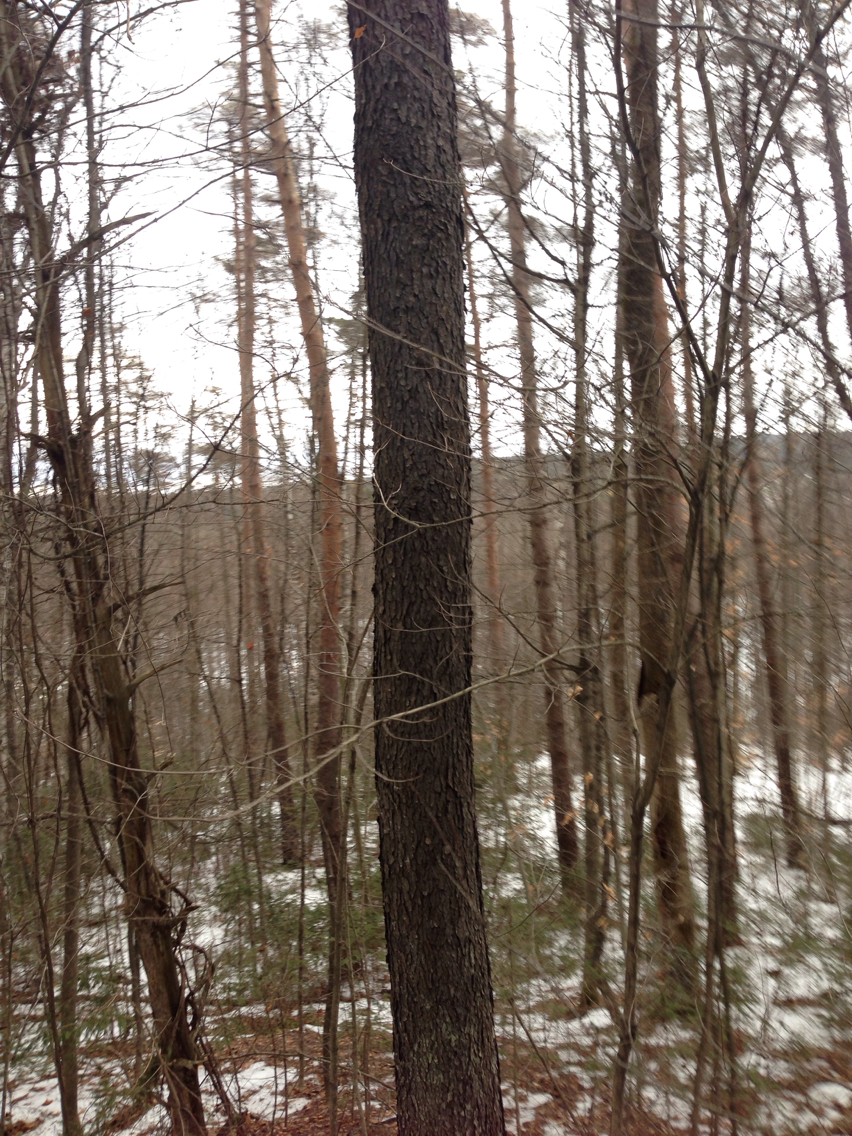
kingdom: Plantae
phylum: Tracheophyta
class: Magnoliopsida
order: Rosales
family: Rosaceae
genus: Prunus
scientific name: Prunus serotina
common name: Black cherry
